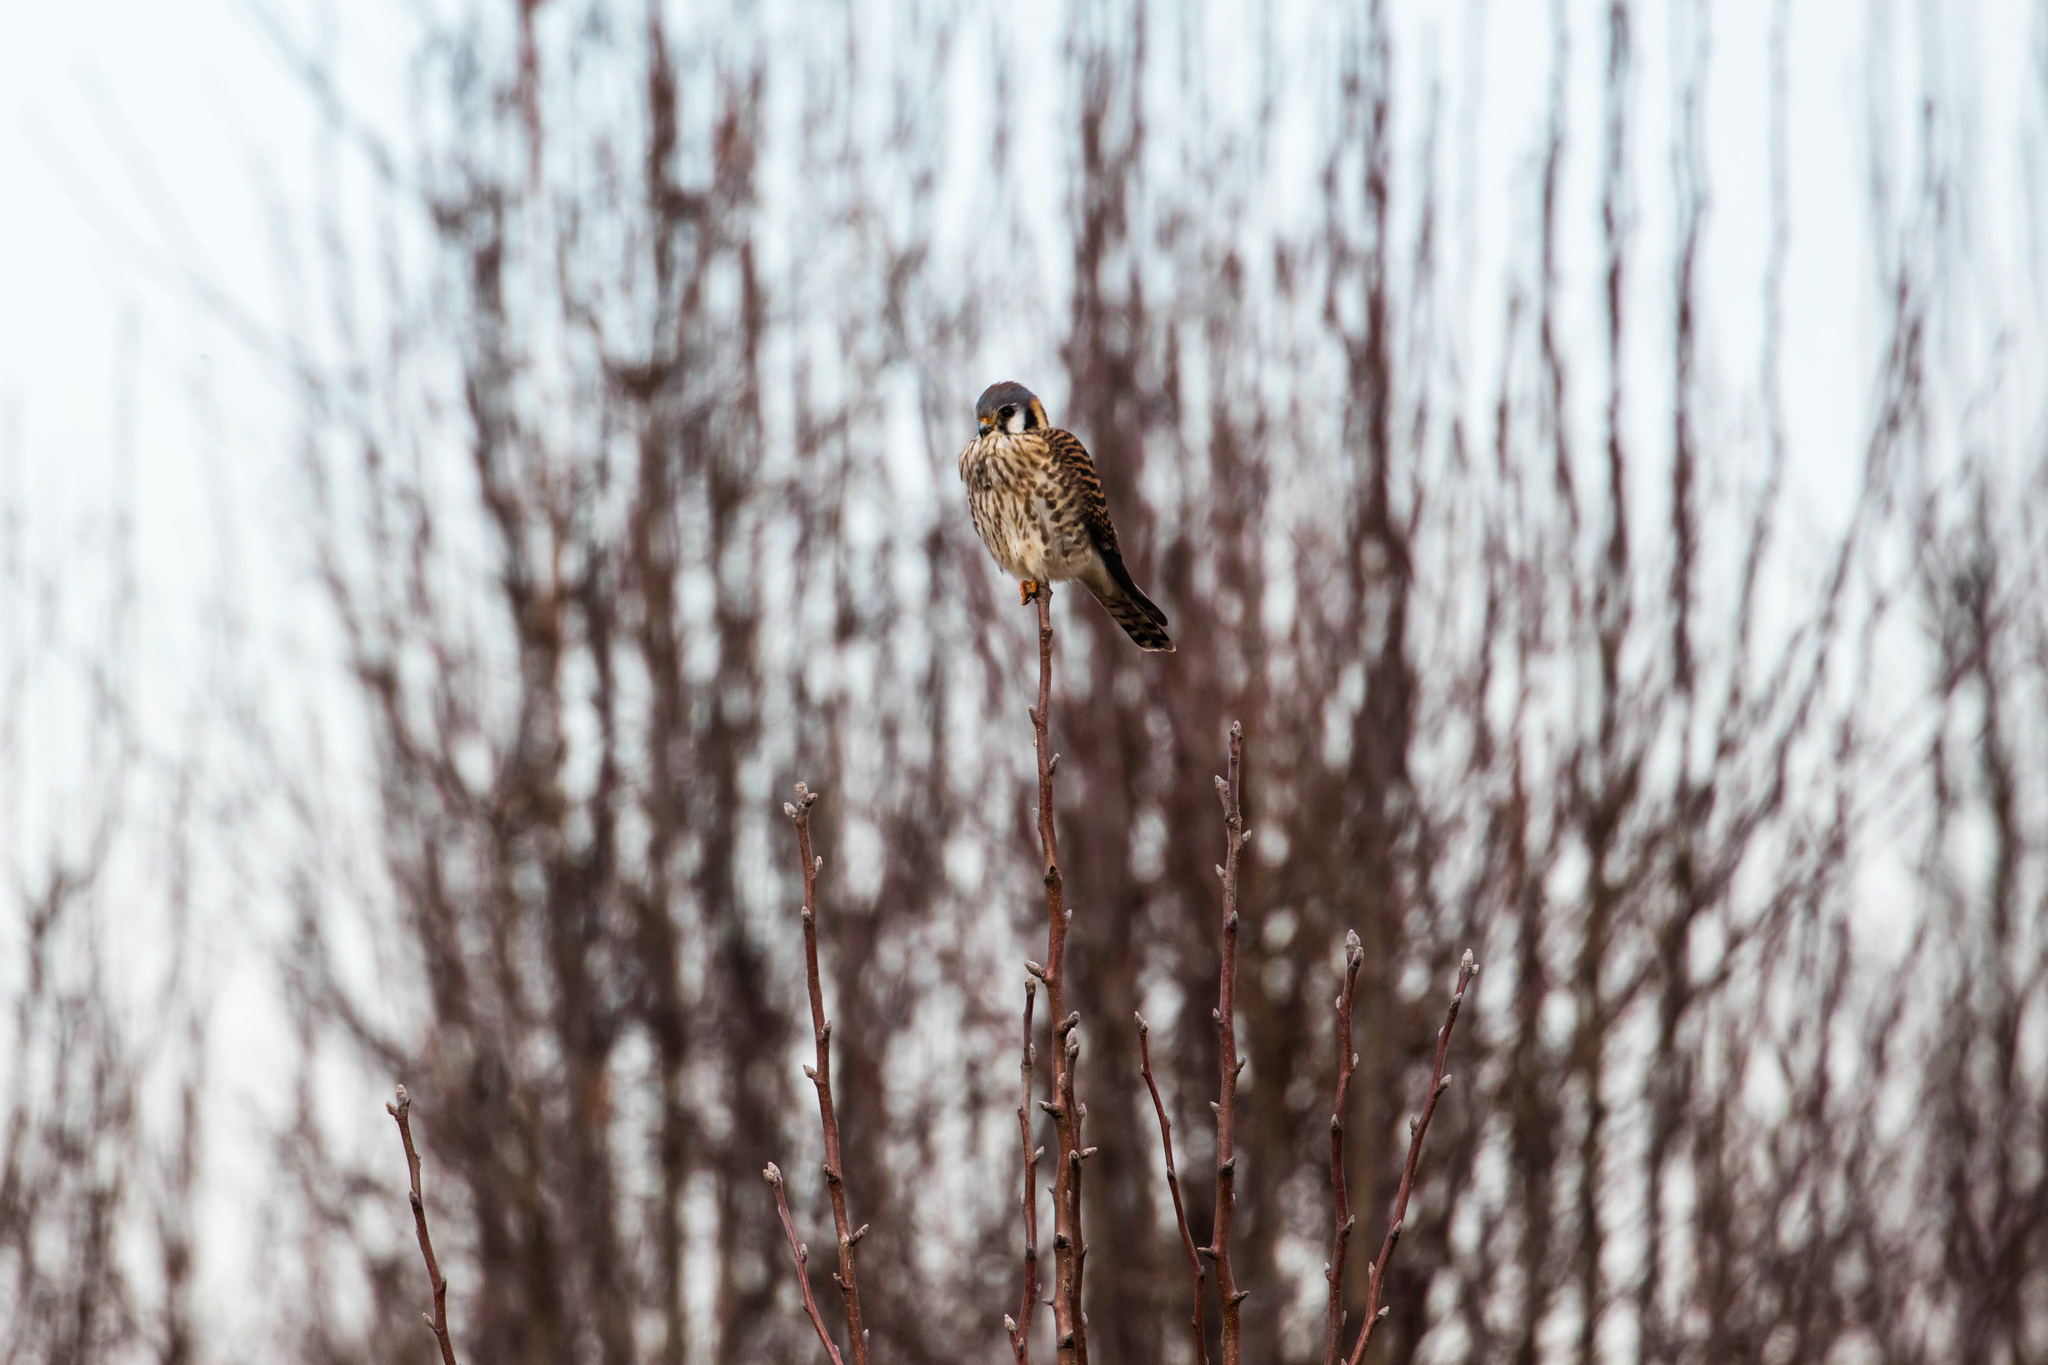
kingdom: Animalia
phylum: Chordata
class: Aves
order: Falconiformes
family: Falconidae
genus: Falco
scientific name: Falco sparverius
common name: American kestrel
